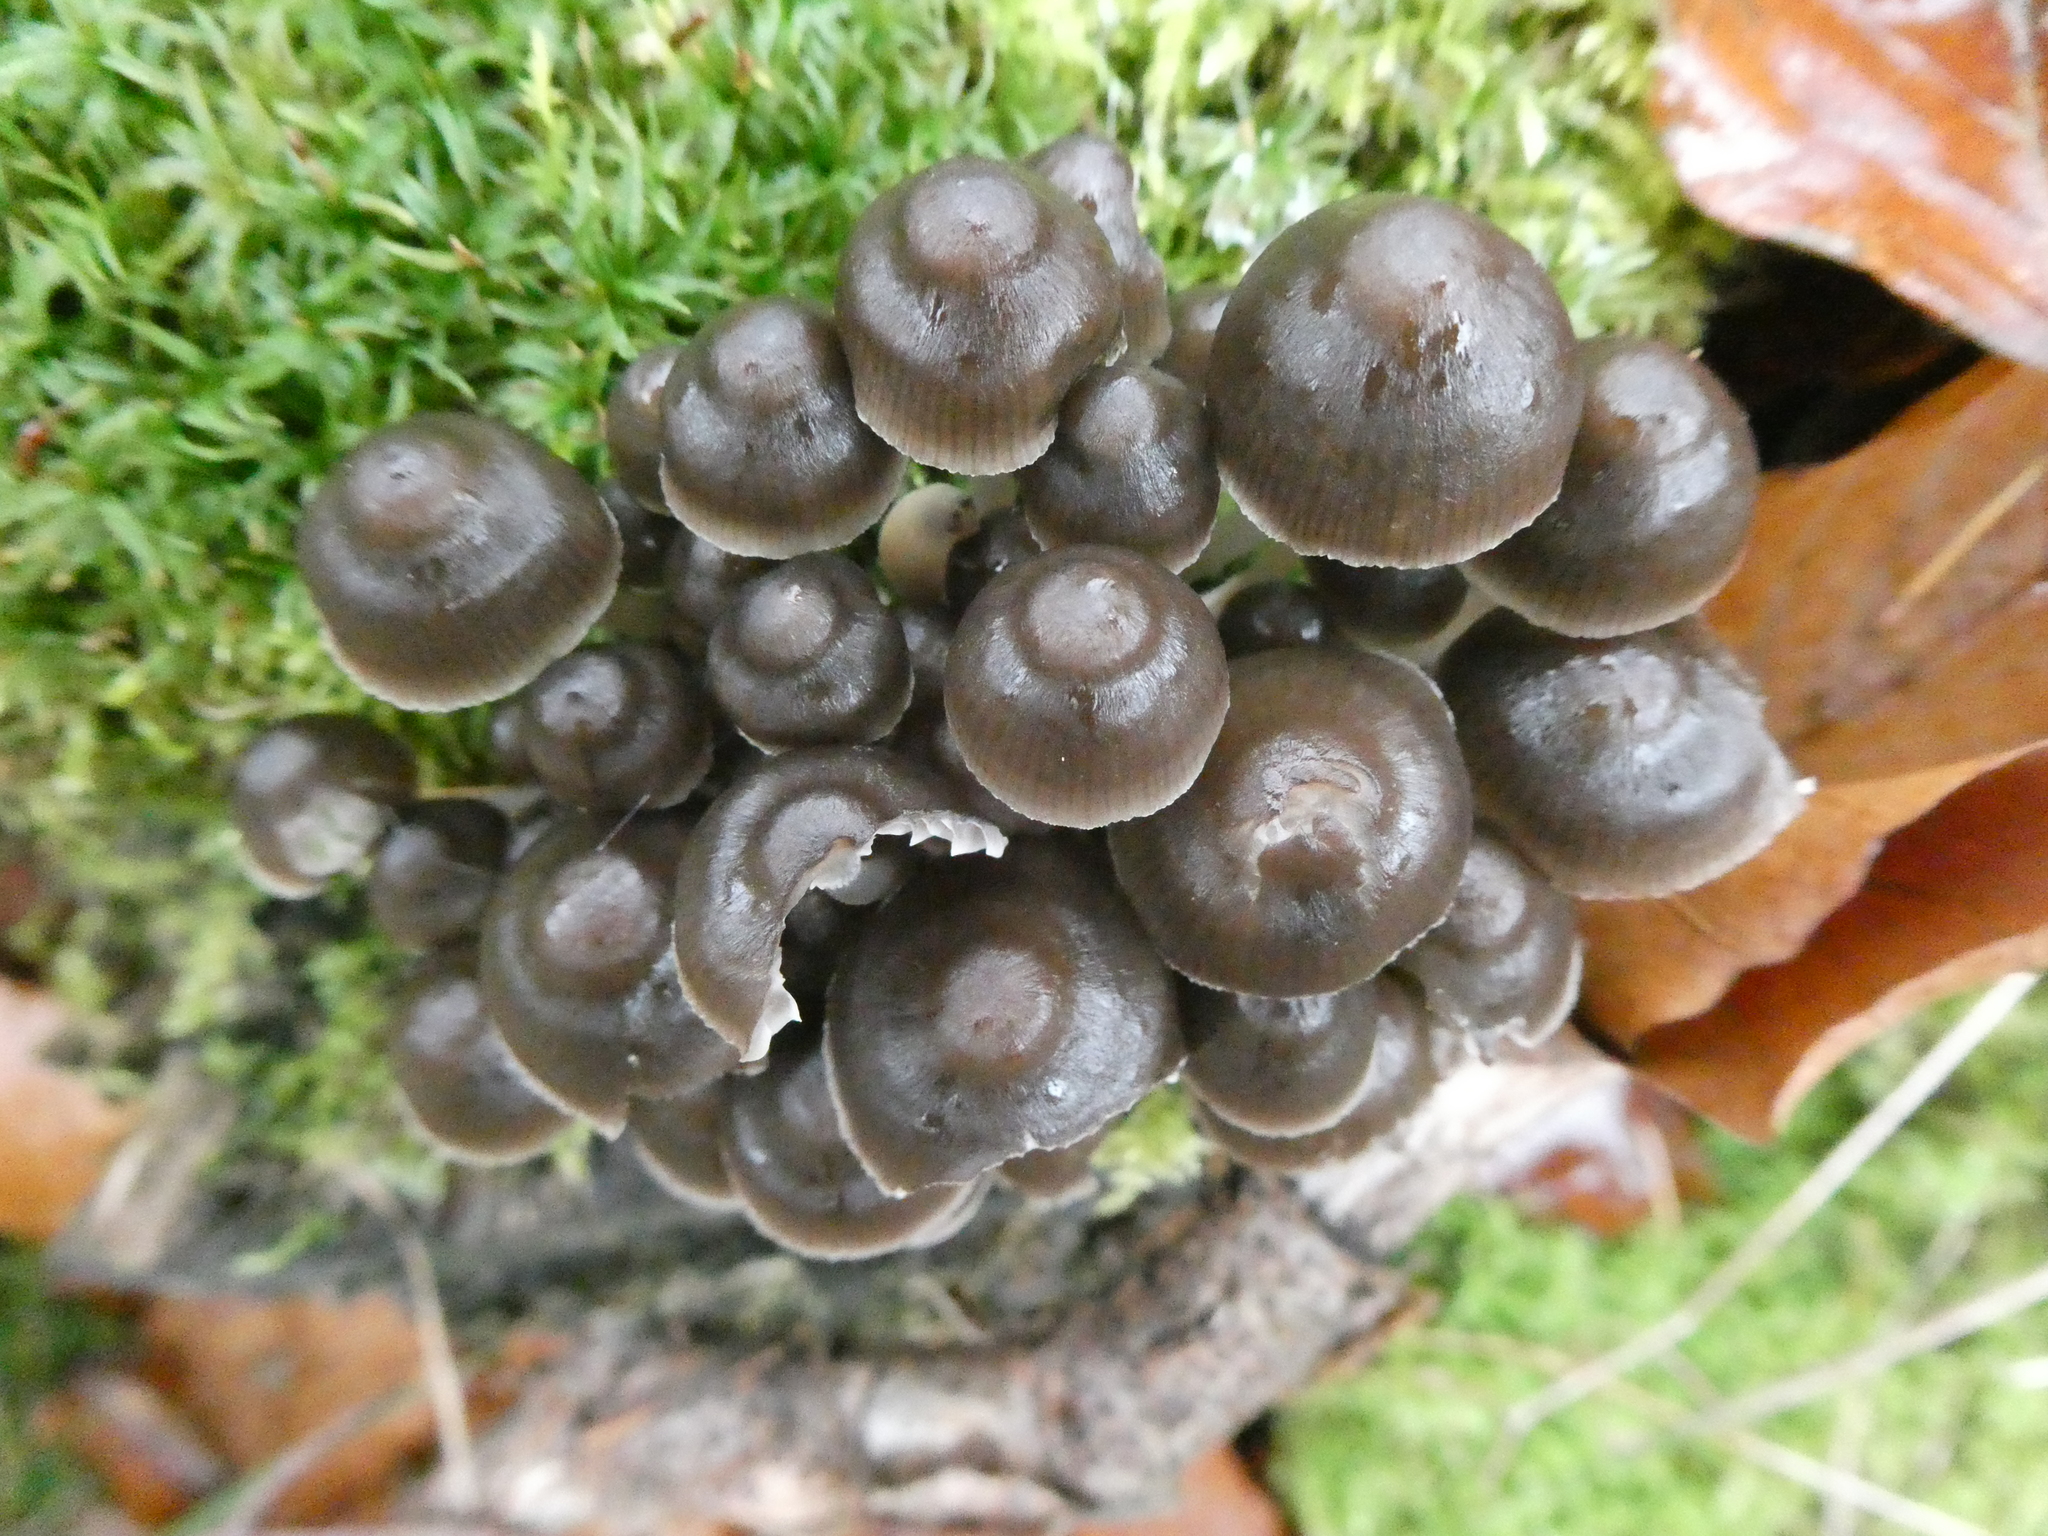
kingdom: Fungi
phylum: Basidiomycota
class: Agaricomycetes
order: Agaricales
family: Mycenaceae
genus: Mycena
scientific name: Mycena tintinnabulum
